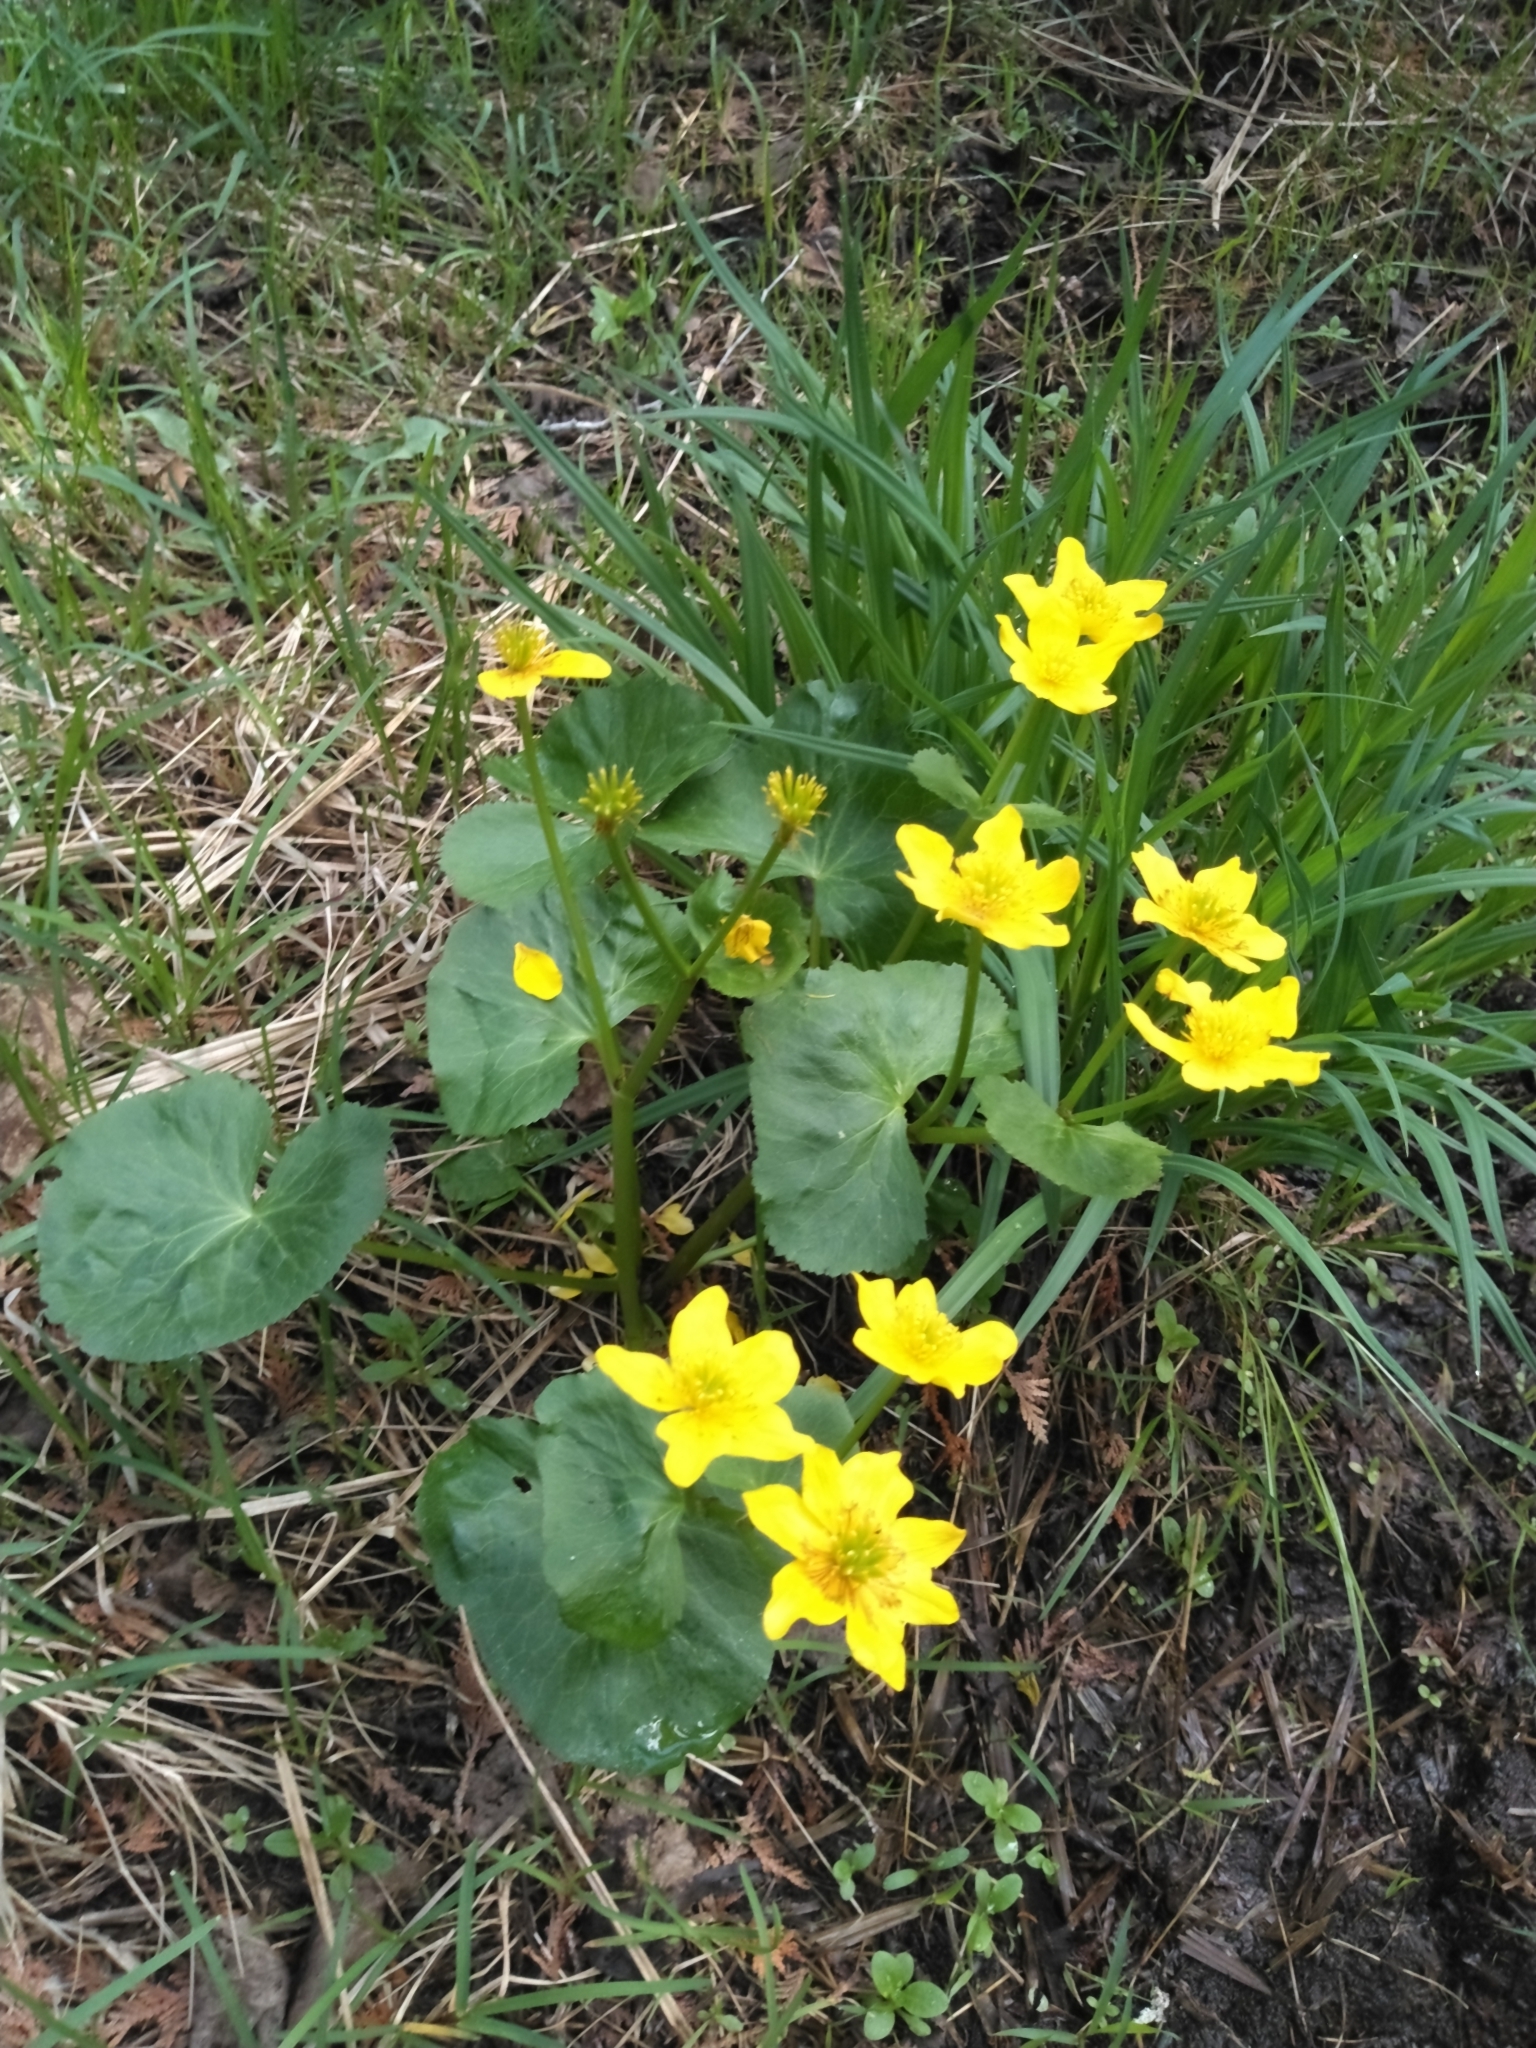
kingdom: Plantae
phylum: Tracheophyta
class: Magnoliopsida
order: Ranunculales
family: Ranunculaceae
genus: Caltha
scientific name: Caltha palustris
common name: Marsh marigold
